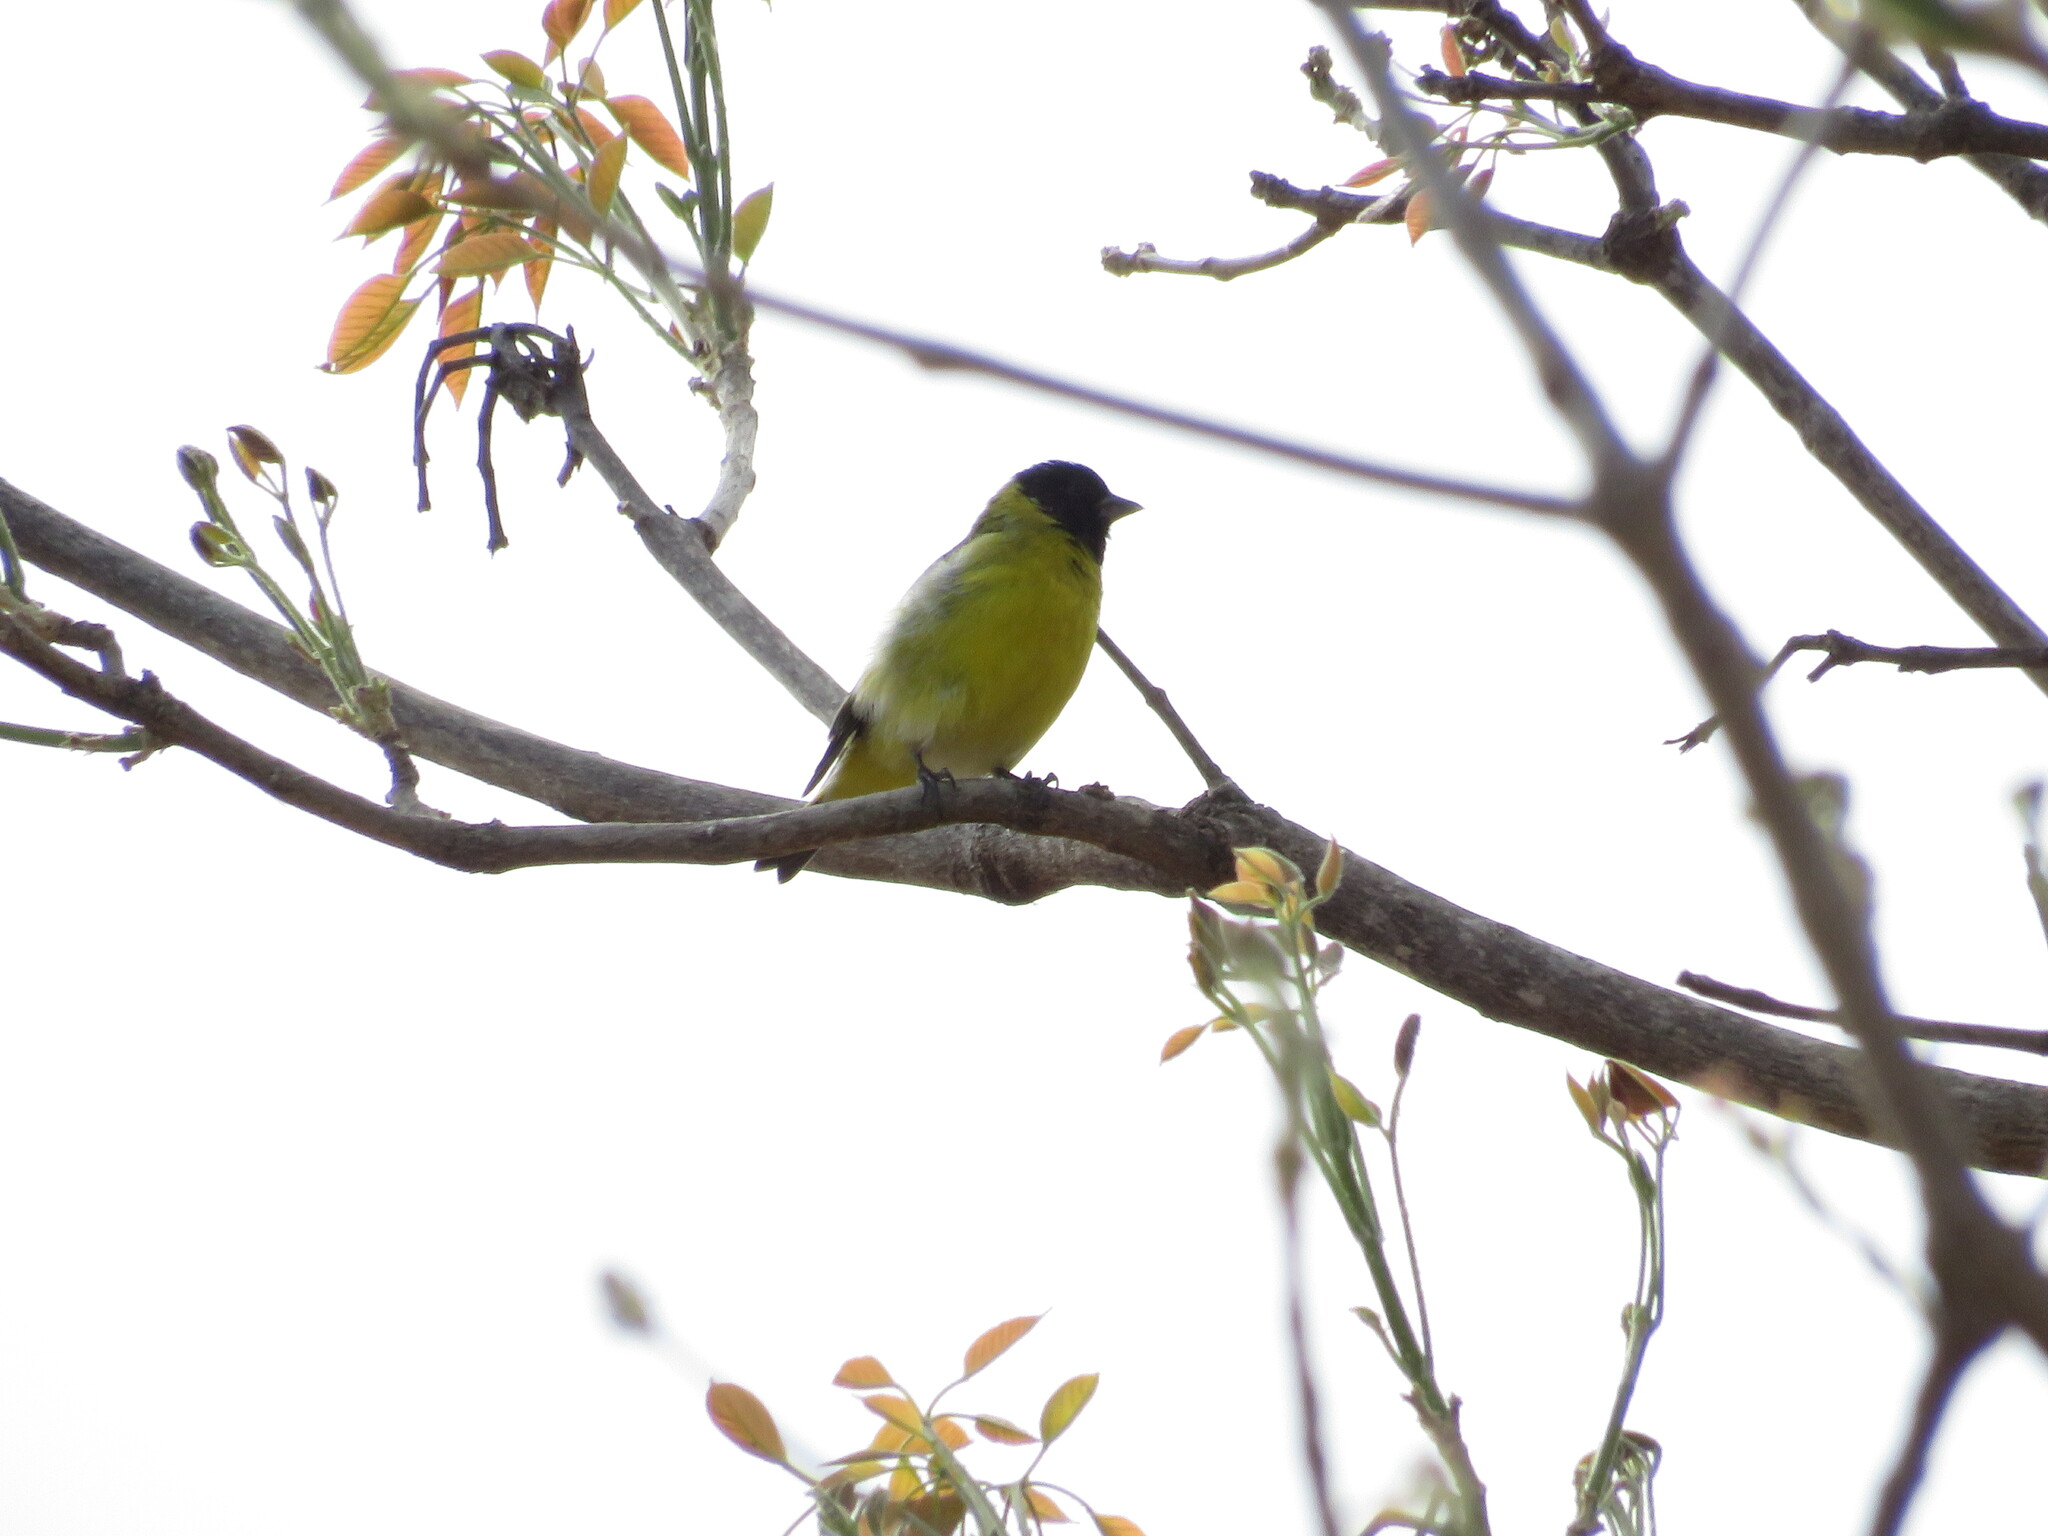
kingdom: Animalia
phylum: Chordata
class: Aves
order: Passeriformes
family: Fringillidae
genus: Spinus
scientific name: Spinus magellanicus
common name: Hooded siskin
